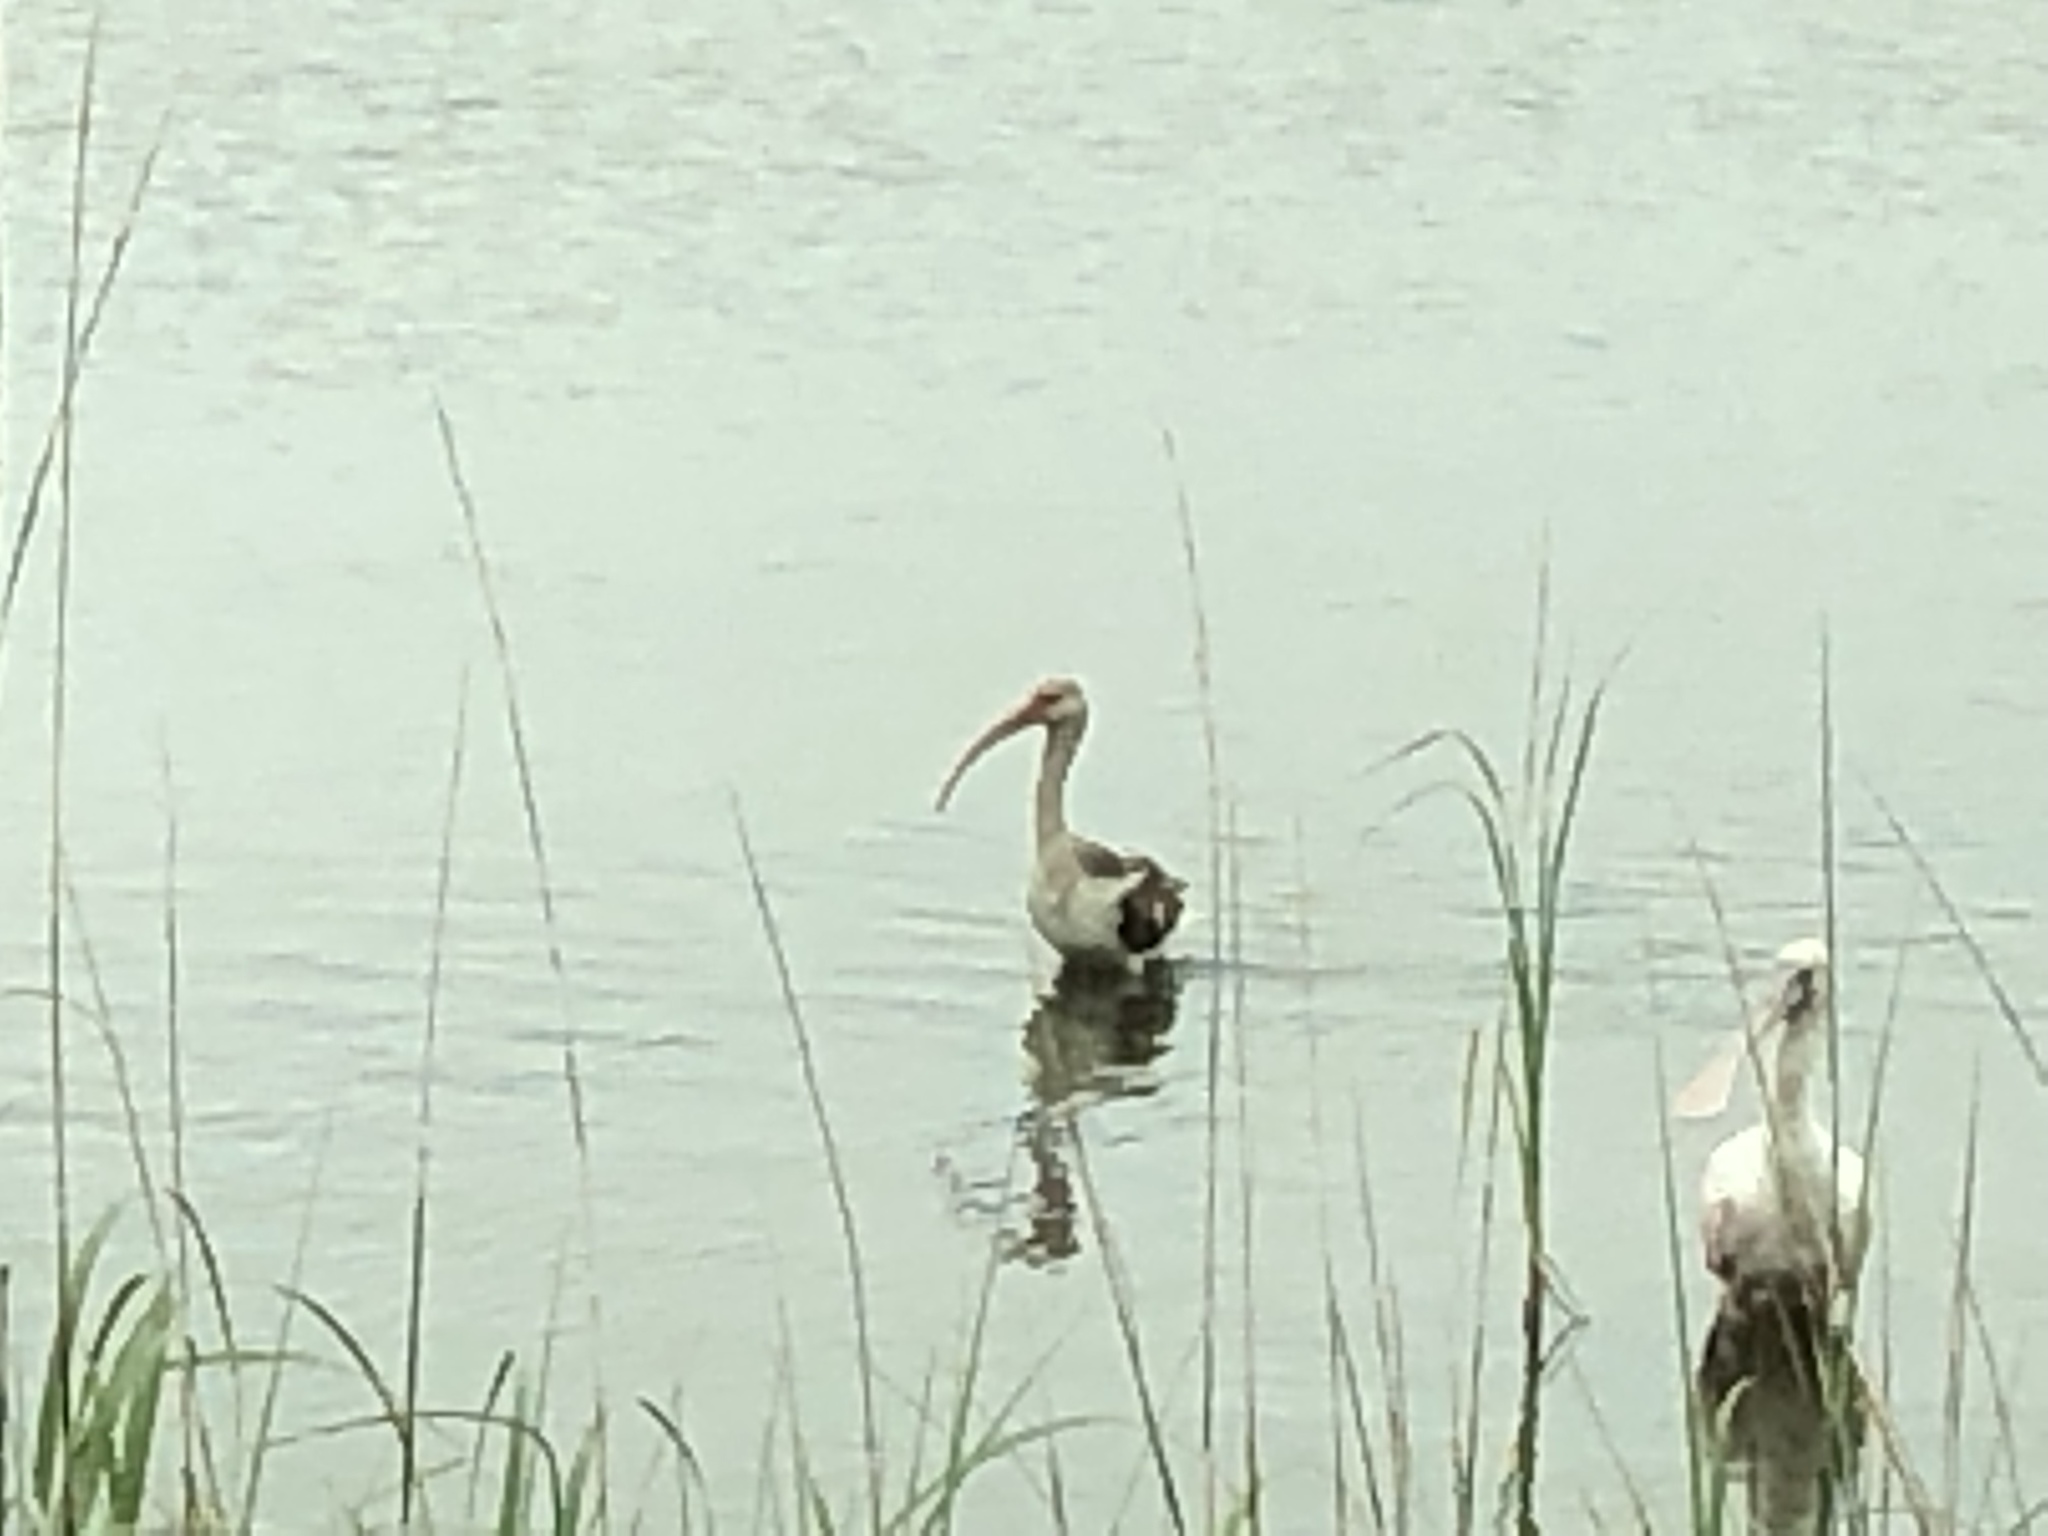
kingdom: Animalia
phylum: Chordata
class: Aves
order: Pelecaniformes
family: Threskiornithidae
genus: Eudocimus
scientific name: Eudocimus albus
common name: White ibis
